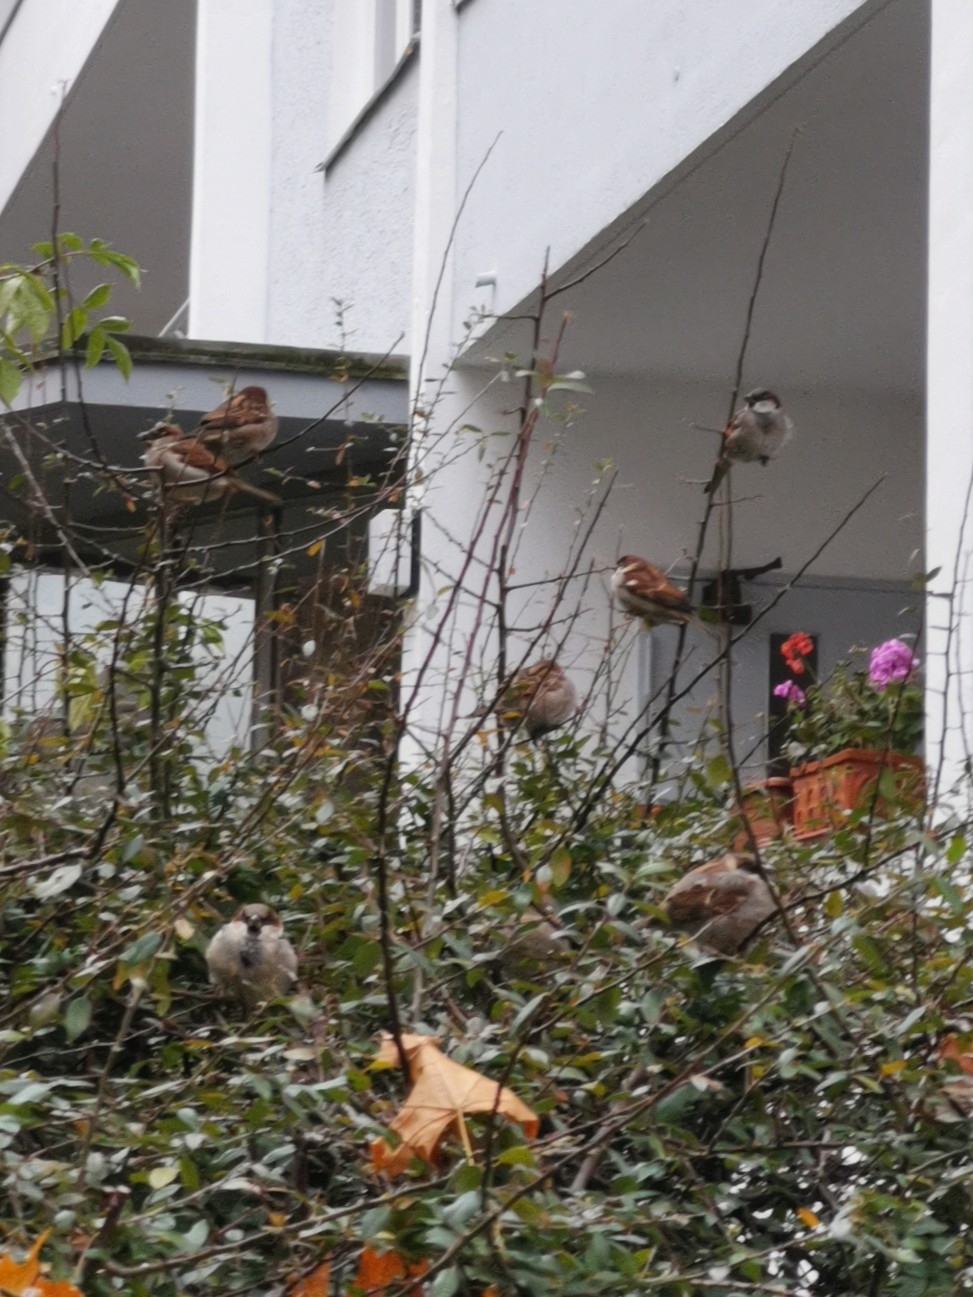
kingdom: Animalia
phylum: Chordata
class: Aves
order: Passeriformes
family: Passeridae
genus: Passer
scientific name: Passer domesticus
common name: House sparrow
